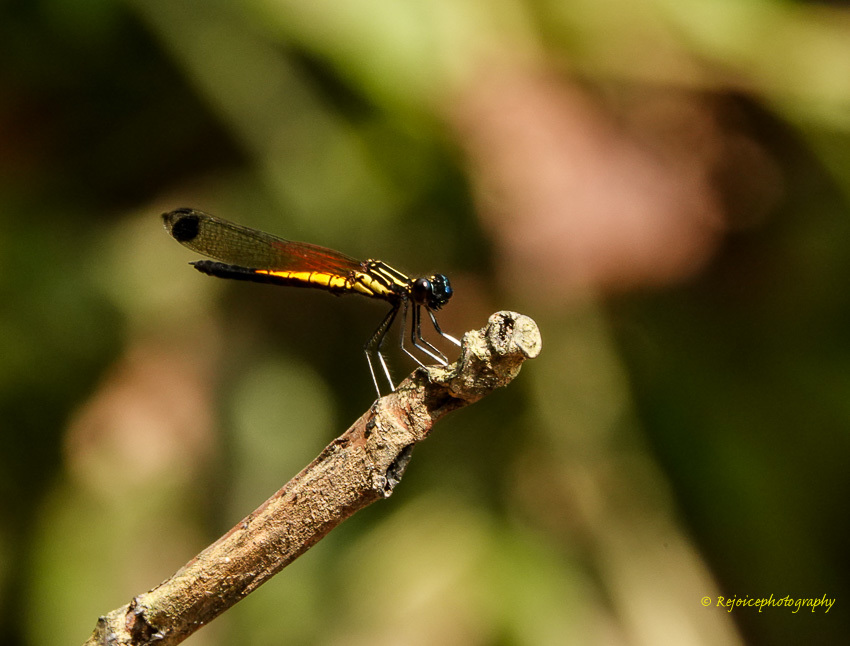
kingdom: Animalia
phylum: Arthropoda
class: Insecta
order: Odonata
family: Chlorocyphidae
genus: Libellago
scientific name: Libellago lineata
